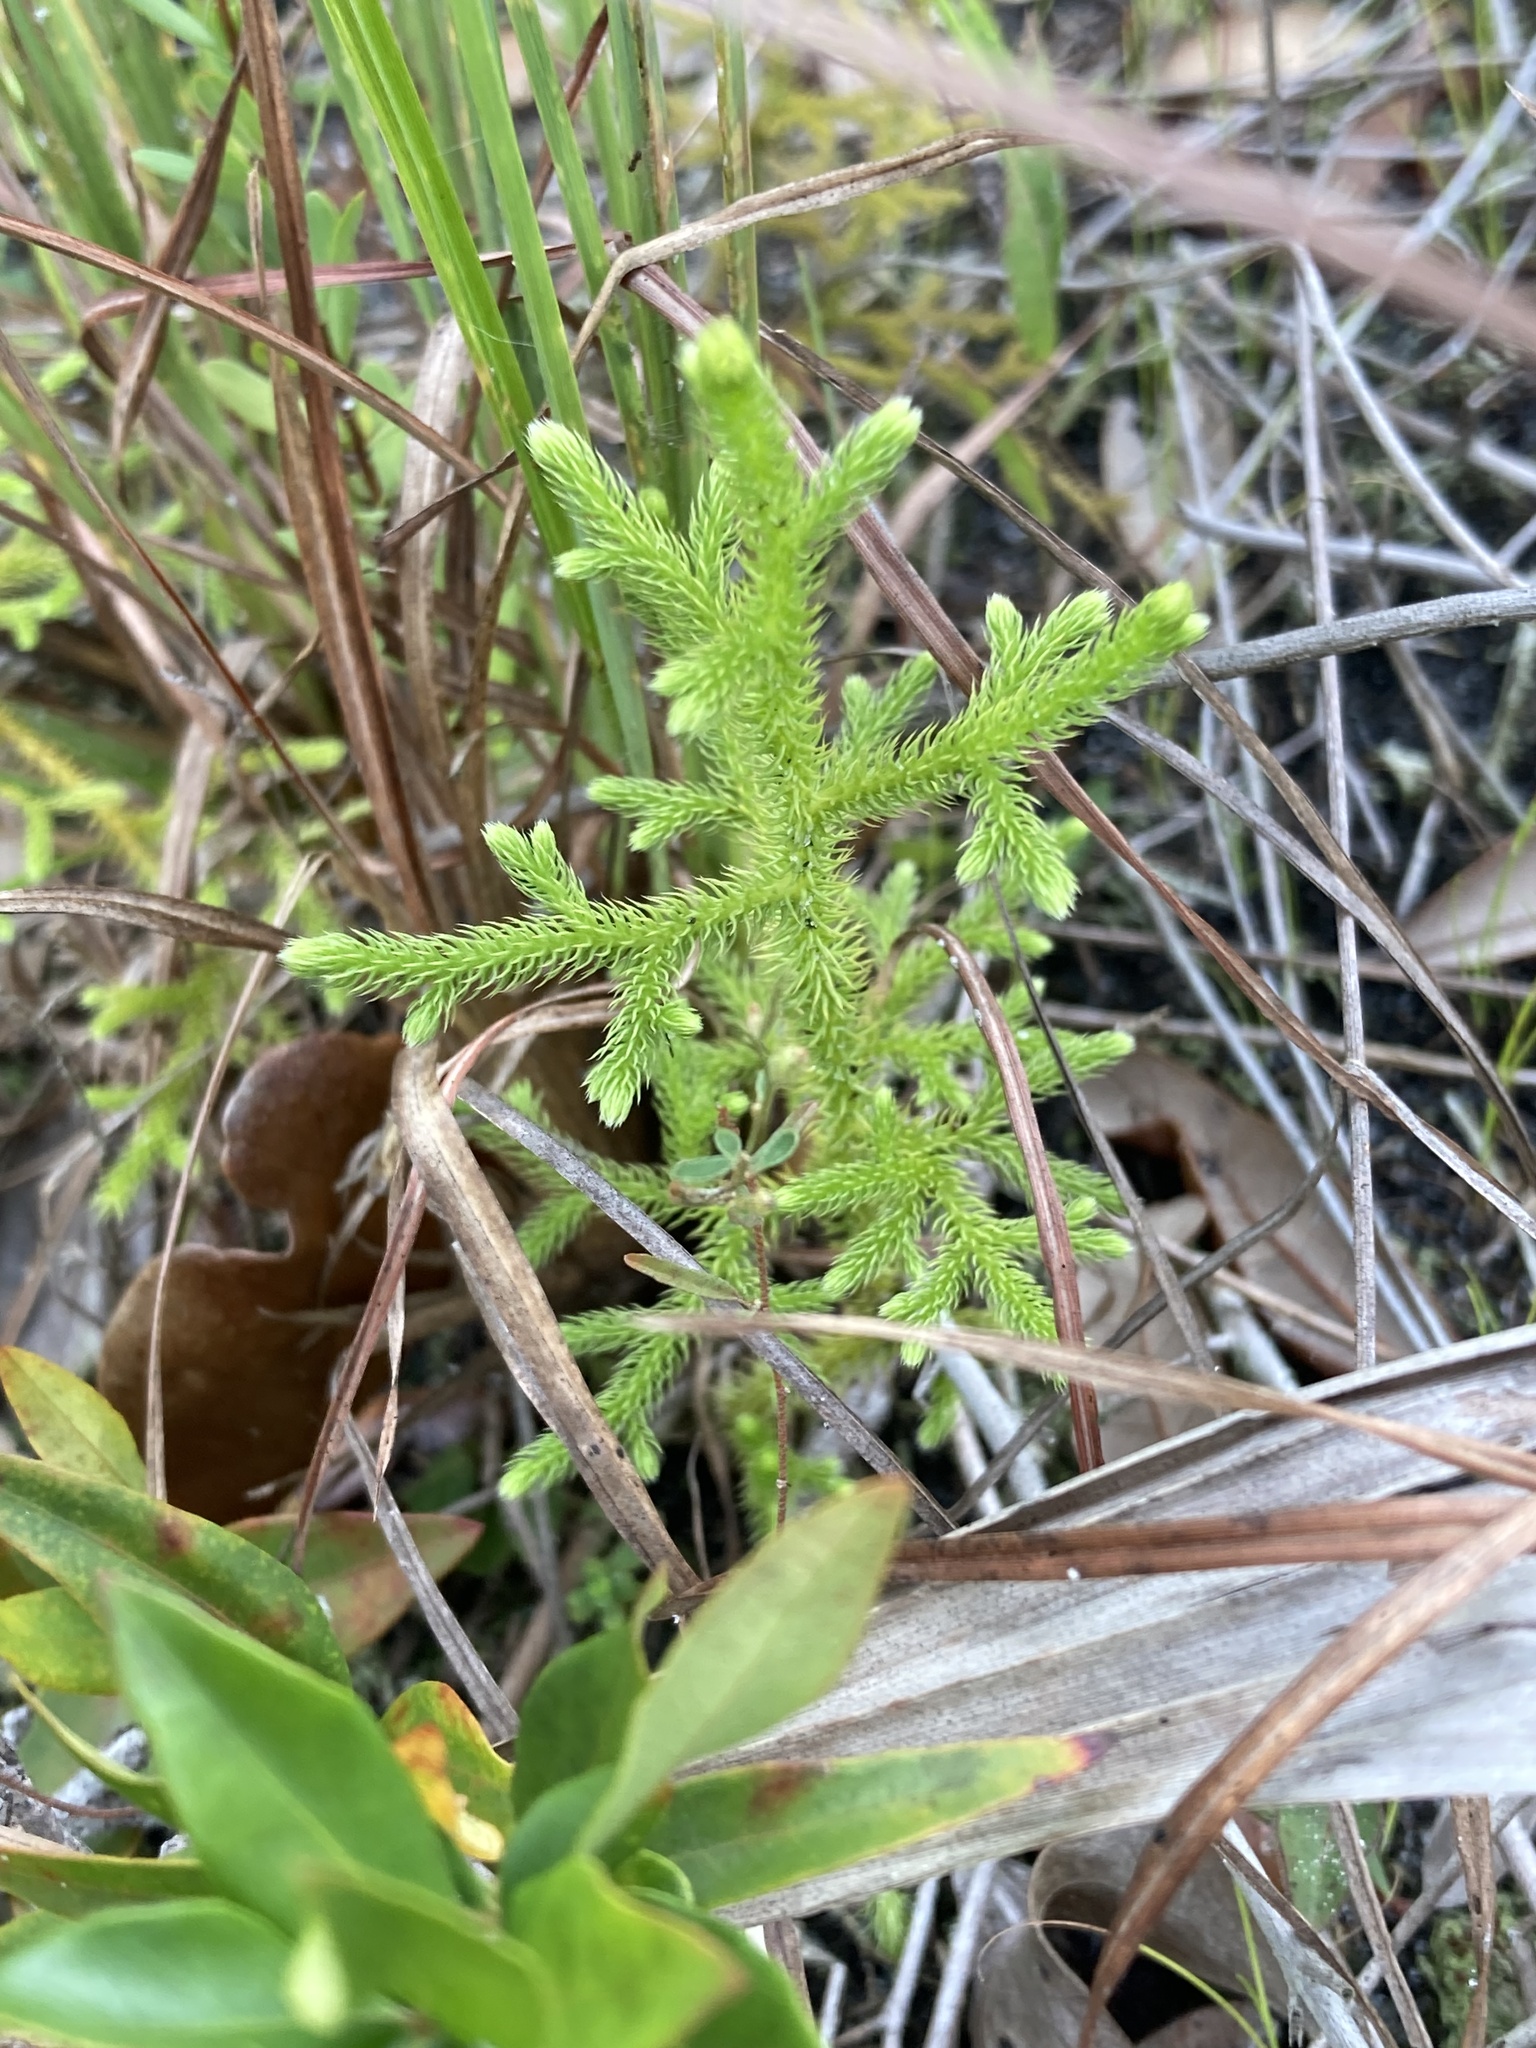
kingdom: Plantae
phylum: Tracheophyta
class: Lycopodiopsida
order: Lycopodiales
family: Lycopodiaceae
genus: Palhinhaea
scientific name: Palhinhaea cernua
